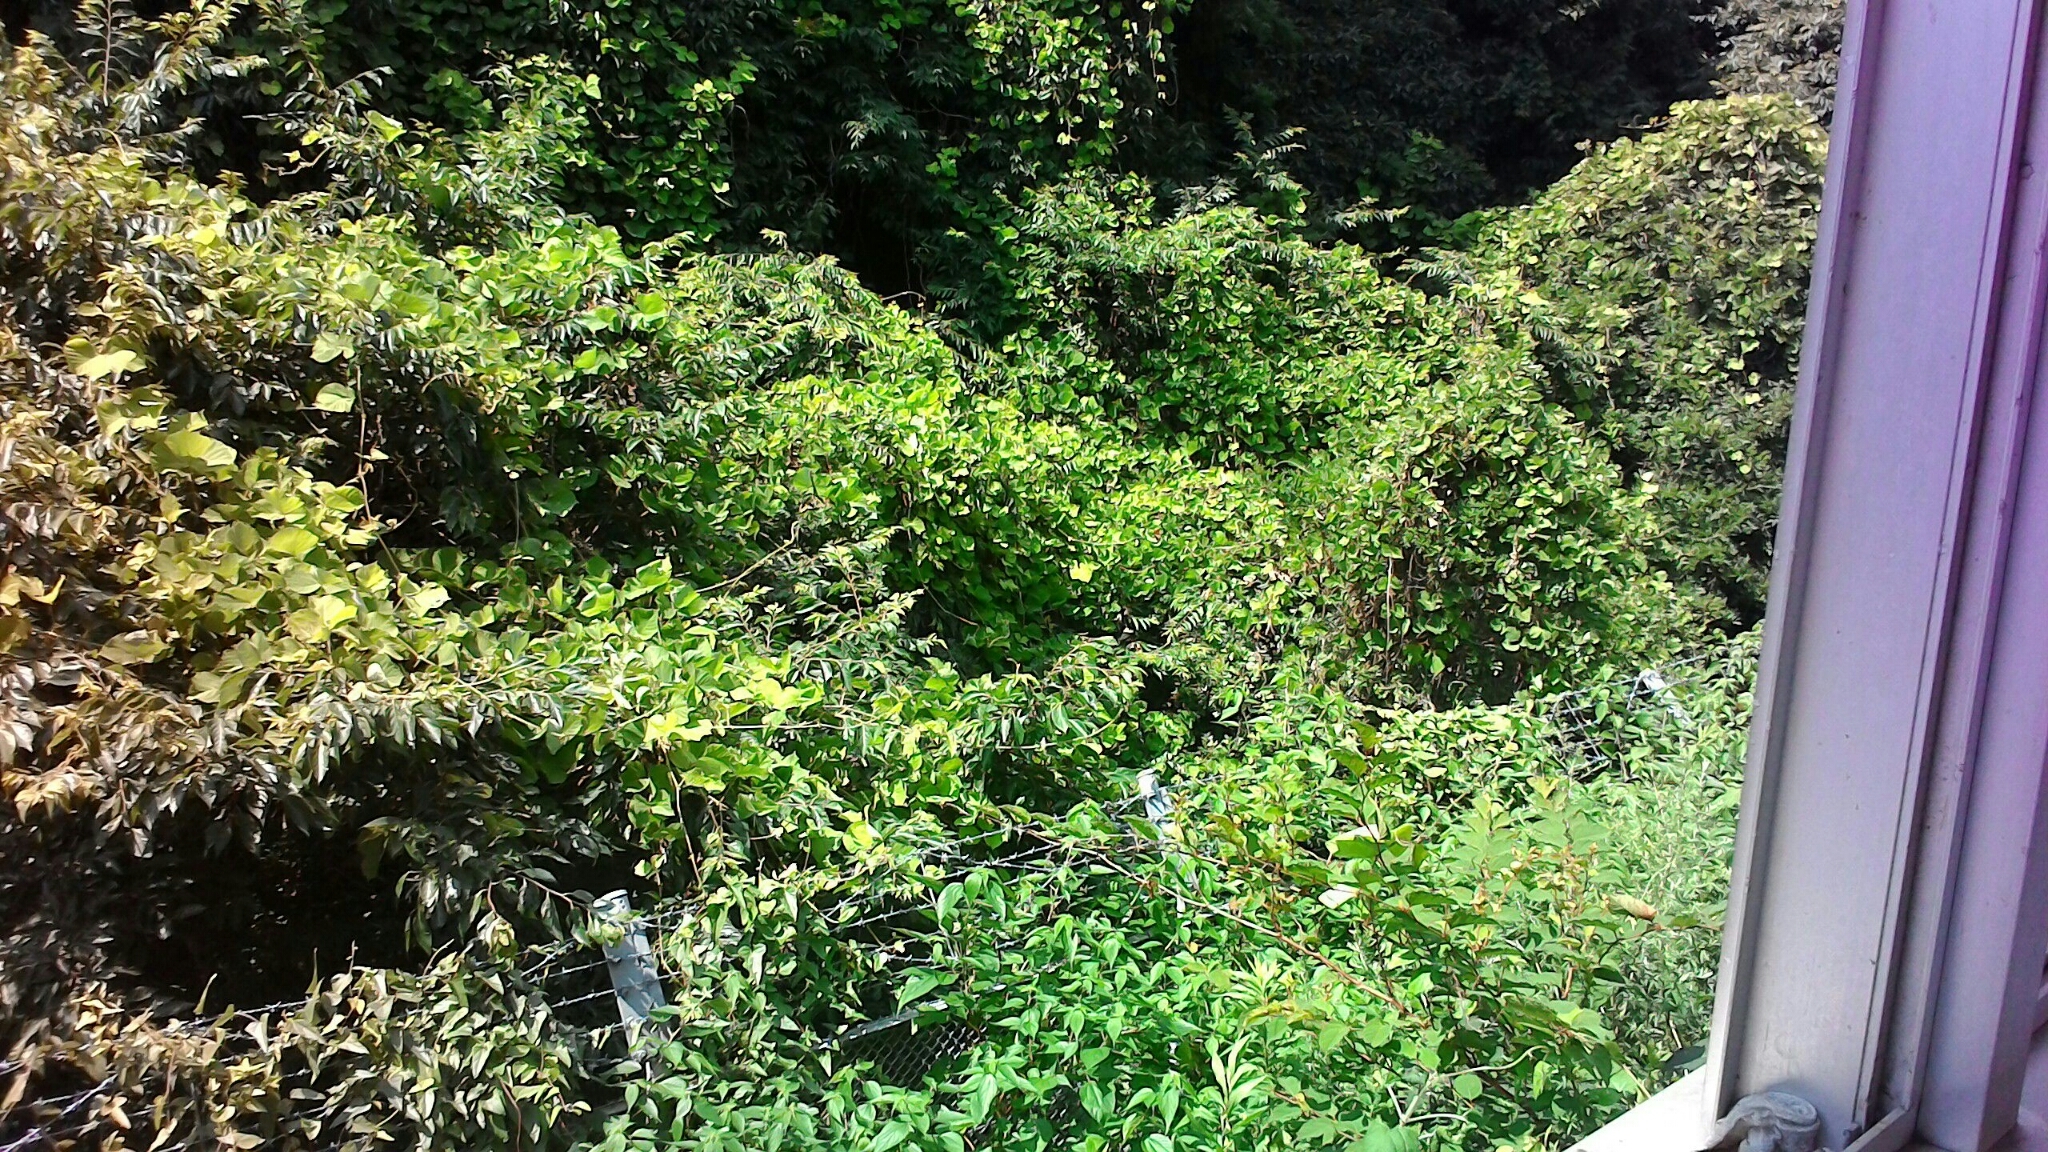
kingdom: Plantae
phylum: Tracheophyta
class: Magnoliopsida
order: Fabales
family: Fabaceae
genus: Pueraria
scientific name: Pueraria montana
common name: Kudzu
